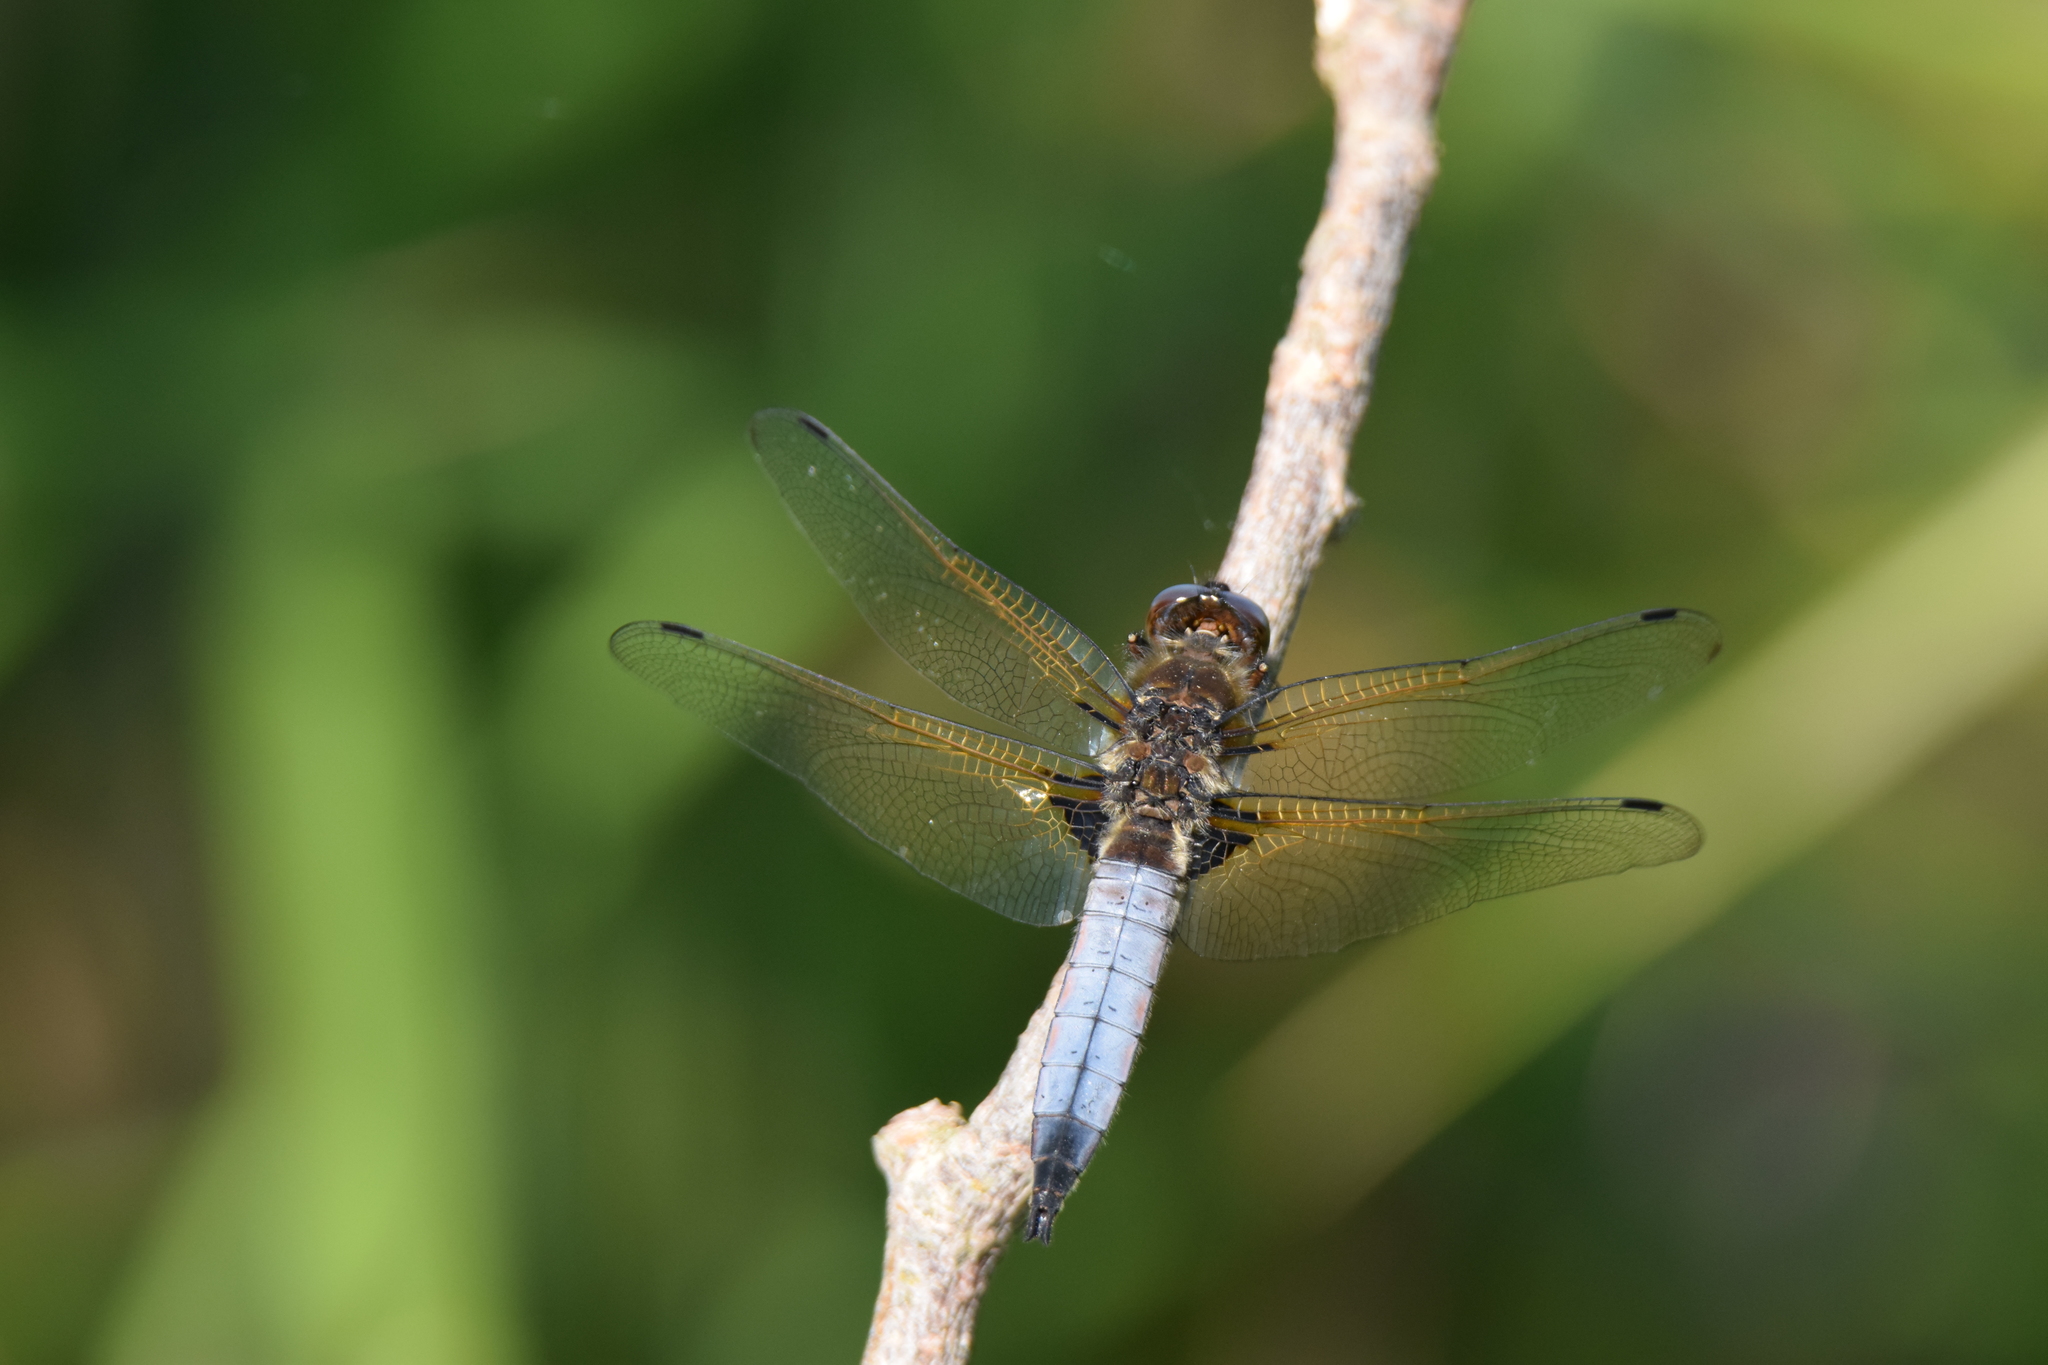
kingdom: Animalia
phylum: Arthropoda
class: Insecta
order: Odonata
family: Libellulidae
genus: Libellula
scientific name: Libellula fulva
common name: Blue chaser
